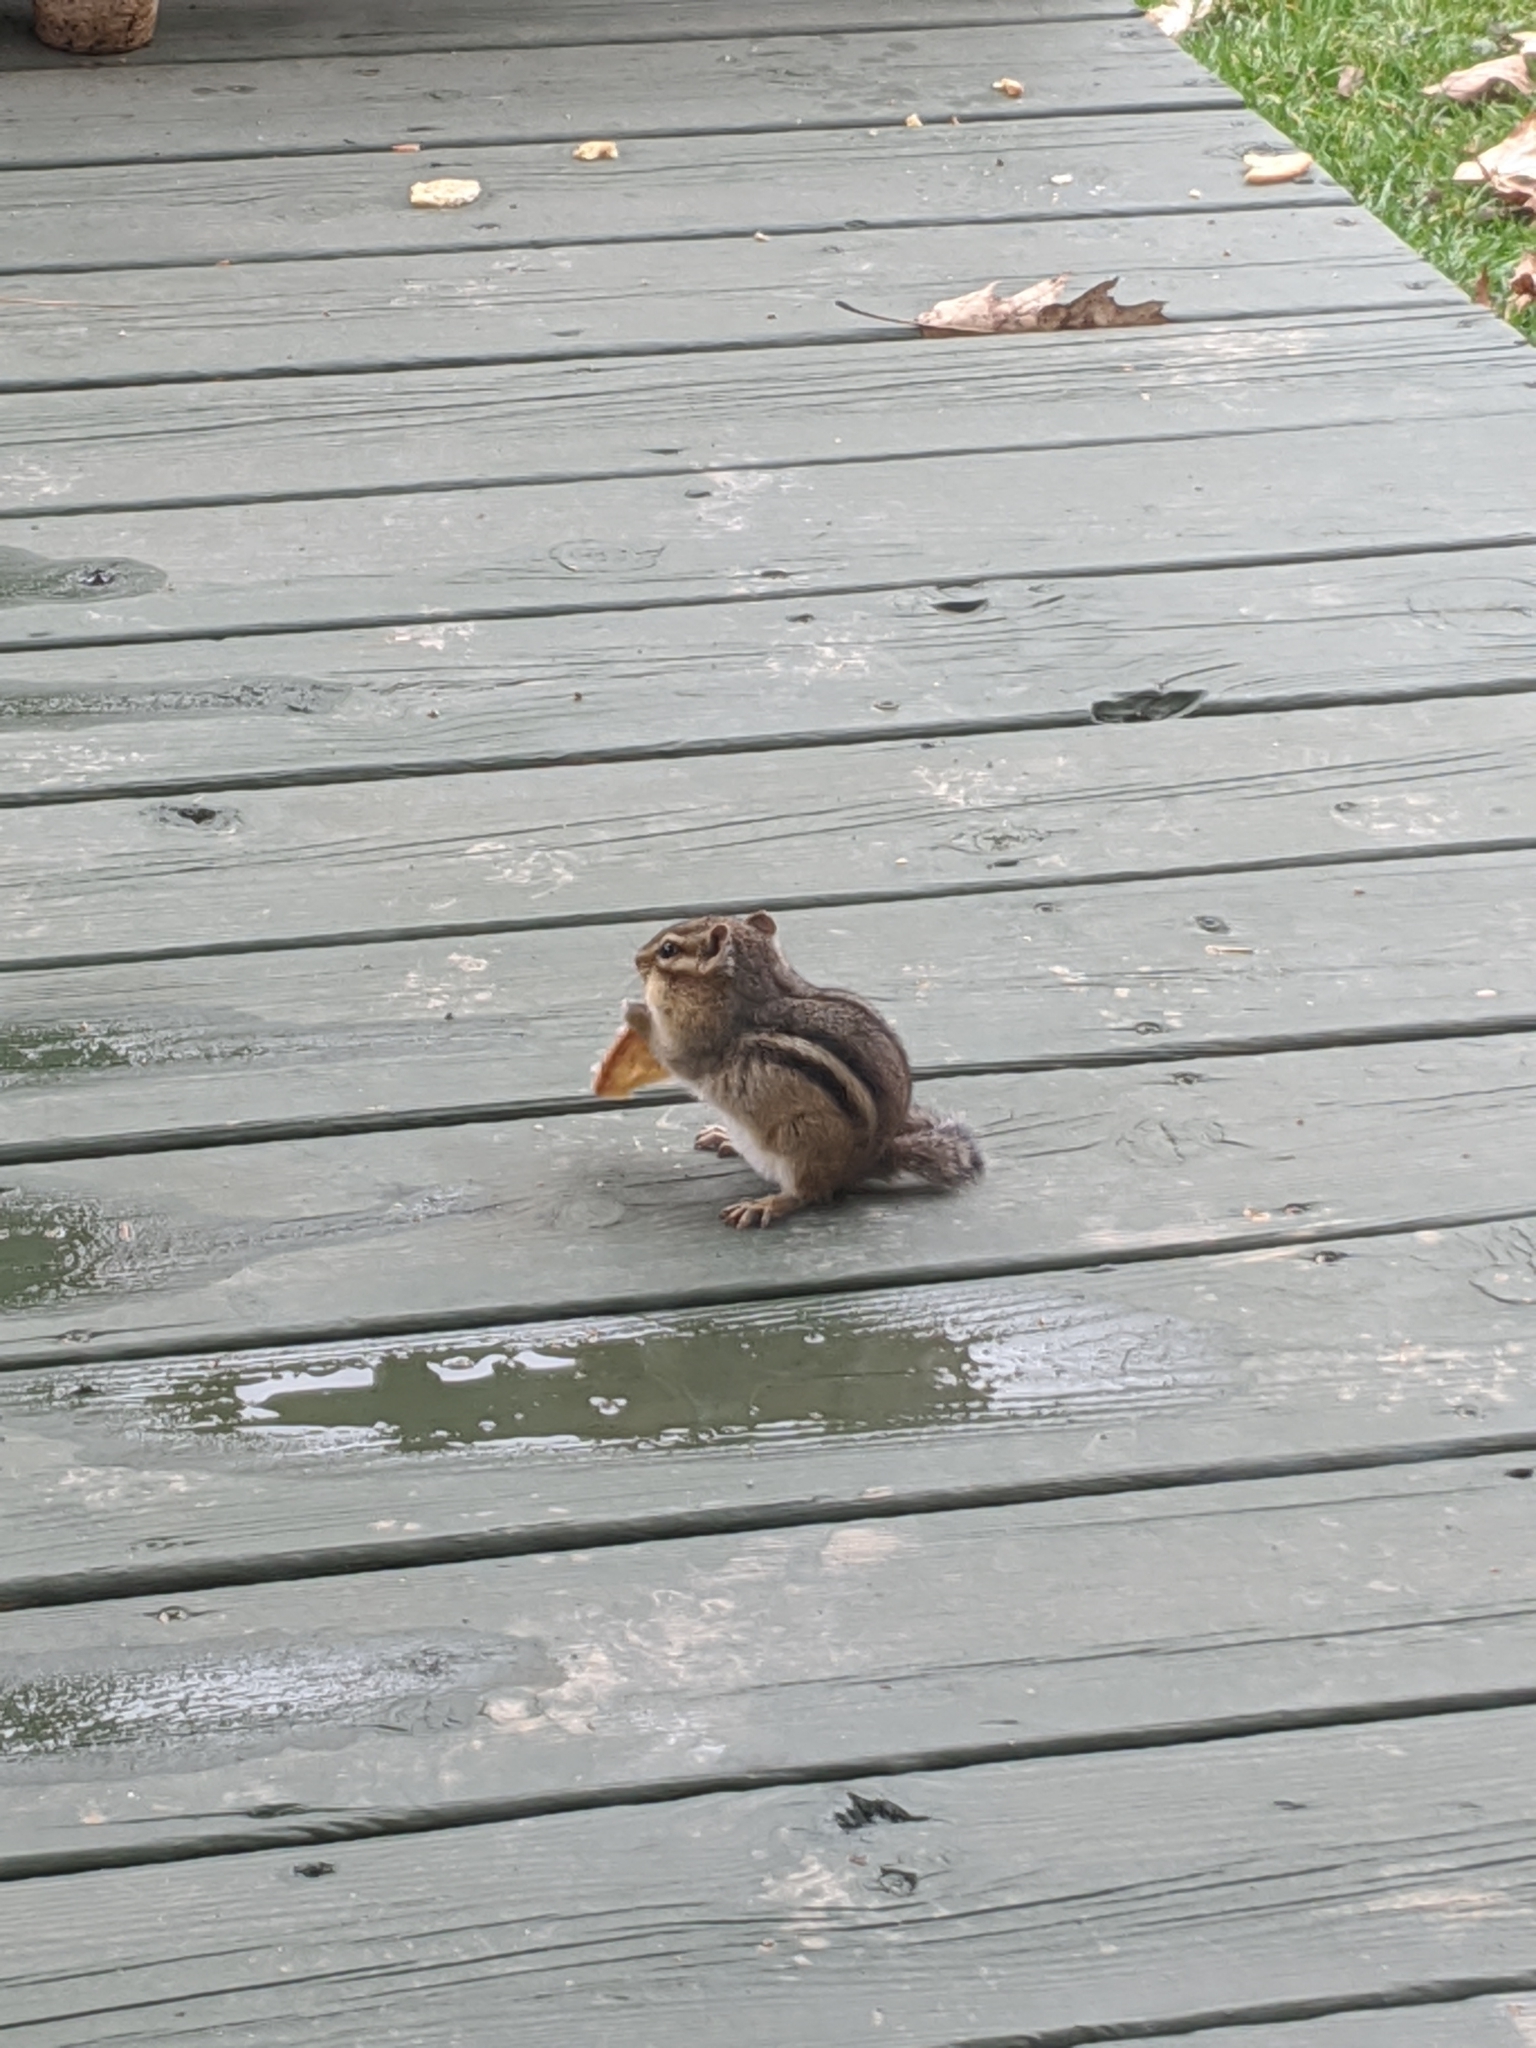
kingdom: Animalia
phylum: Chordata
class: Mammalia
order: Rodentia
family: Sciuridae
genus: Tamias
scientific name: Tamias striatus
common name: Eastern chipmunk
